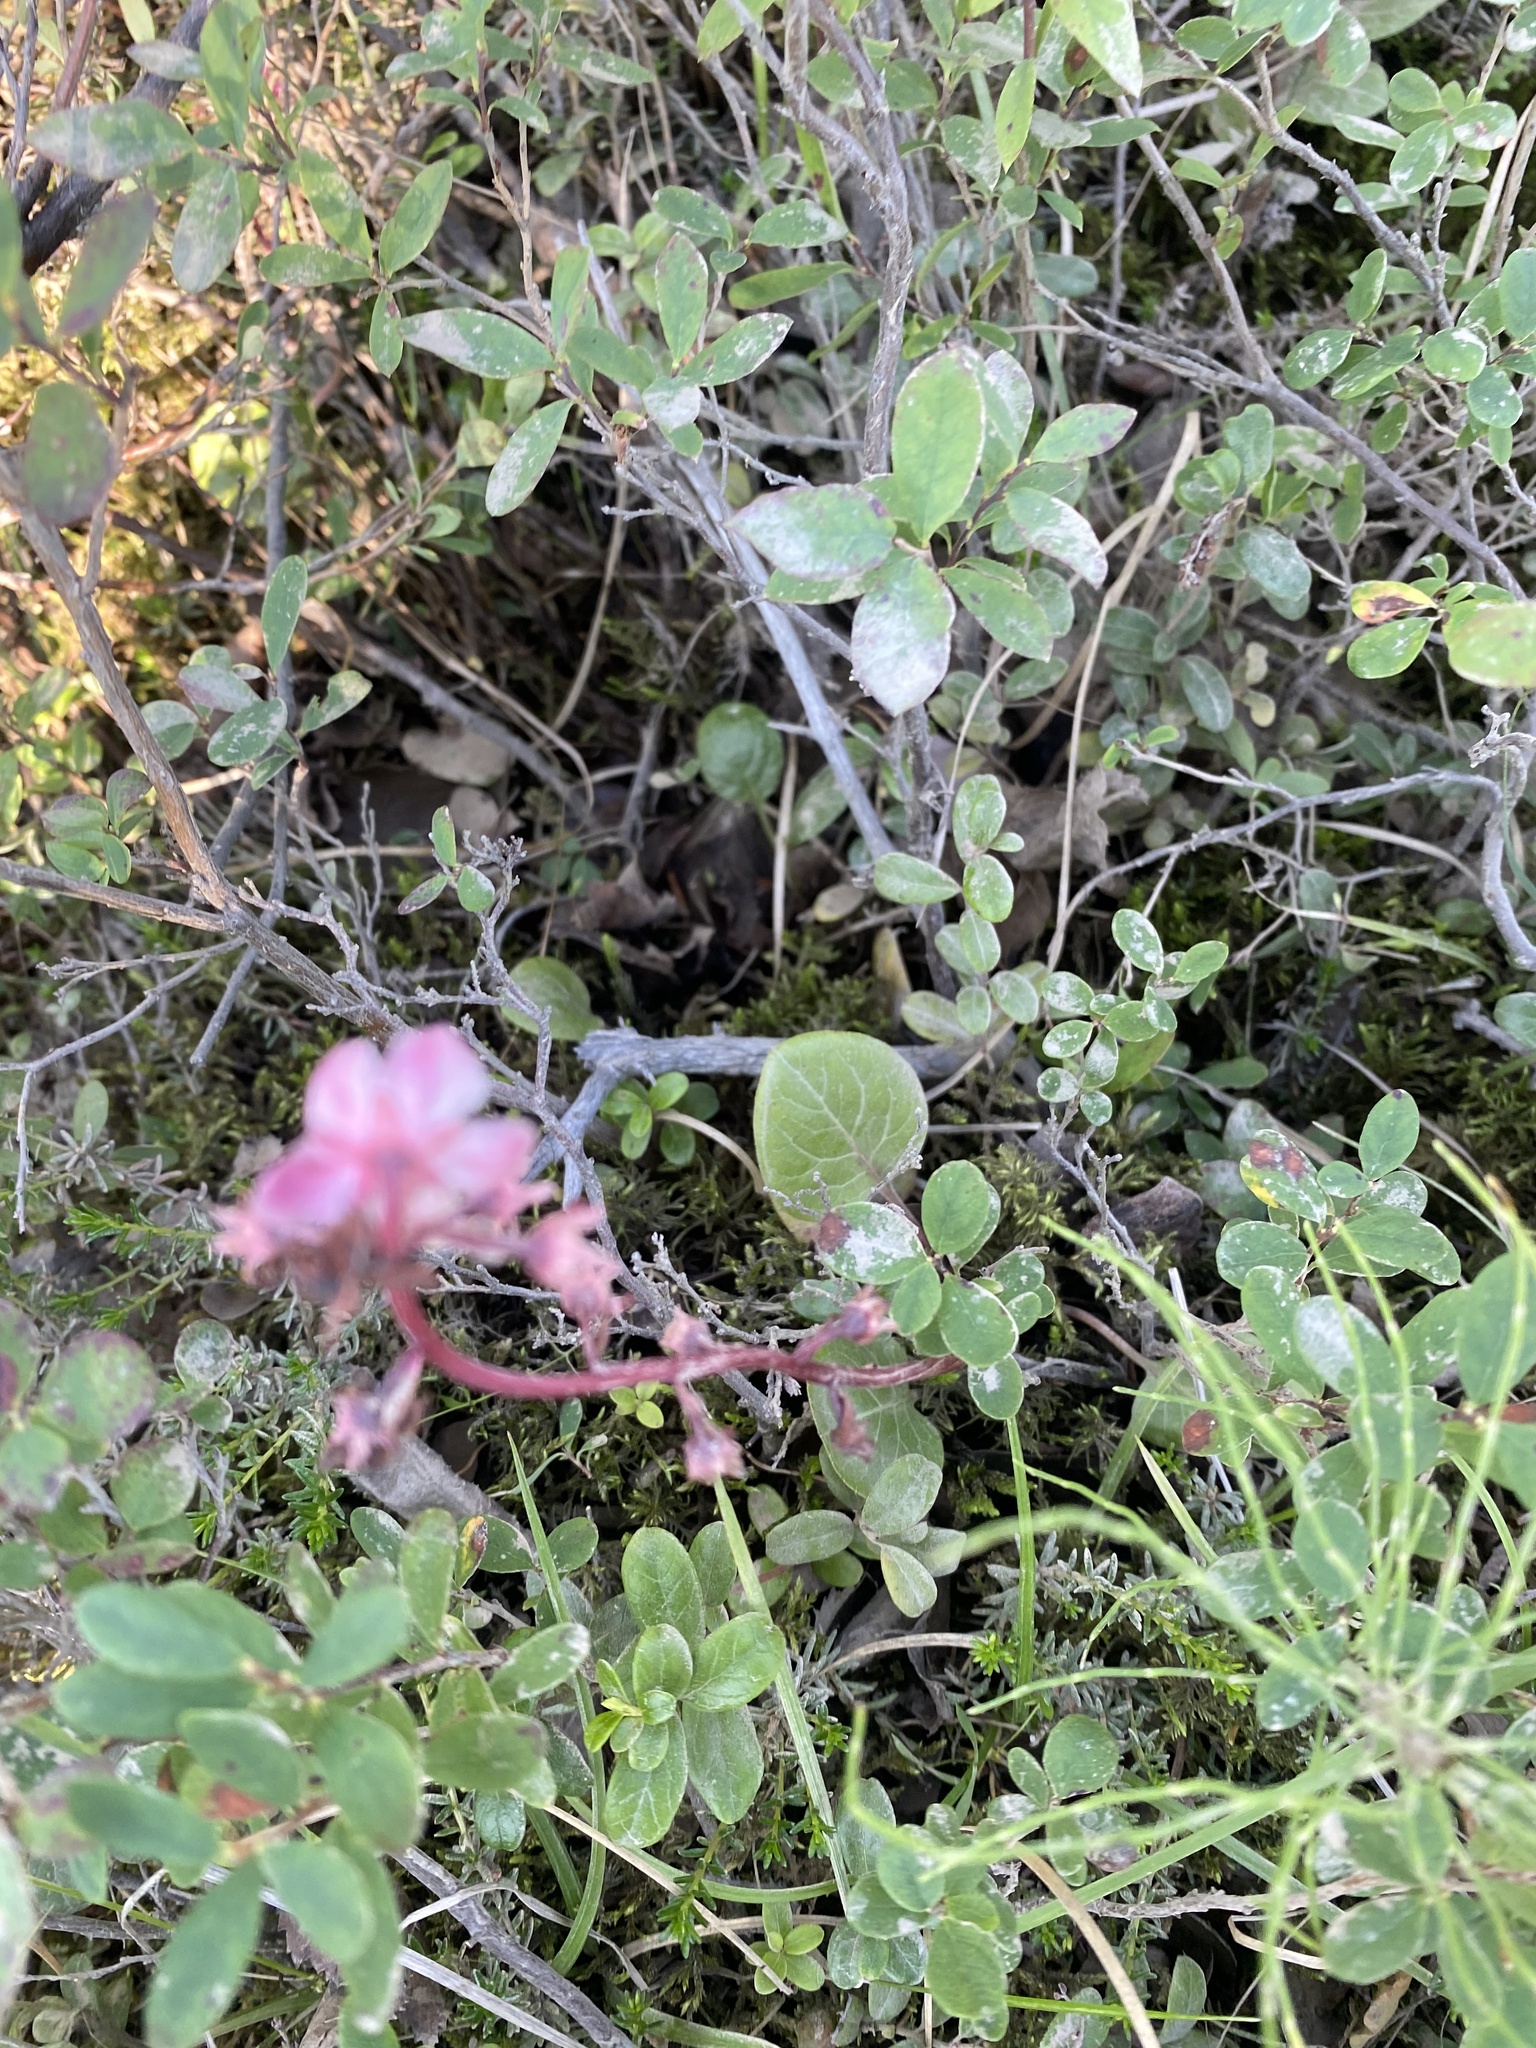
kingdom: Plantae
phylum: Tracheophyta
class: Magnoliopsida
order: Ericales
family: Ericaceae
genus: Pyrola
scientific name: Pyrola asarifolia
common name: Bog wintergreen
